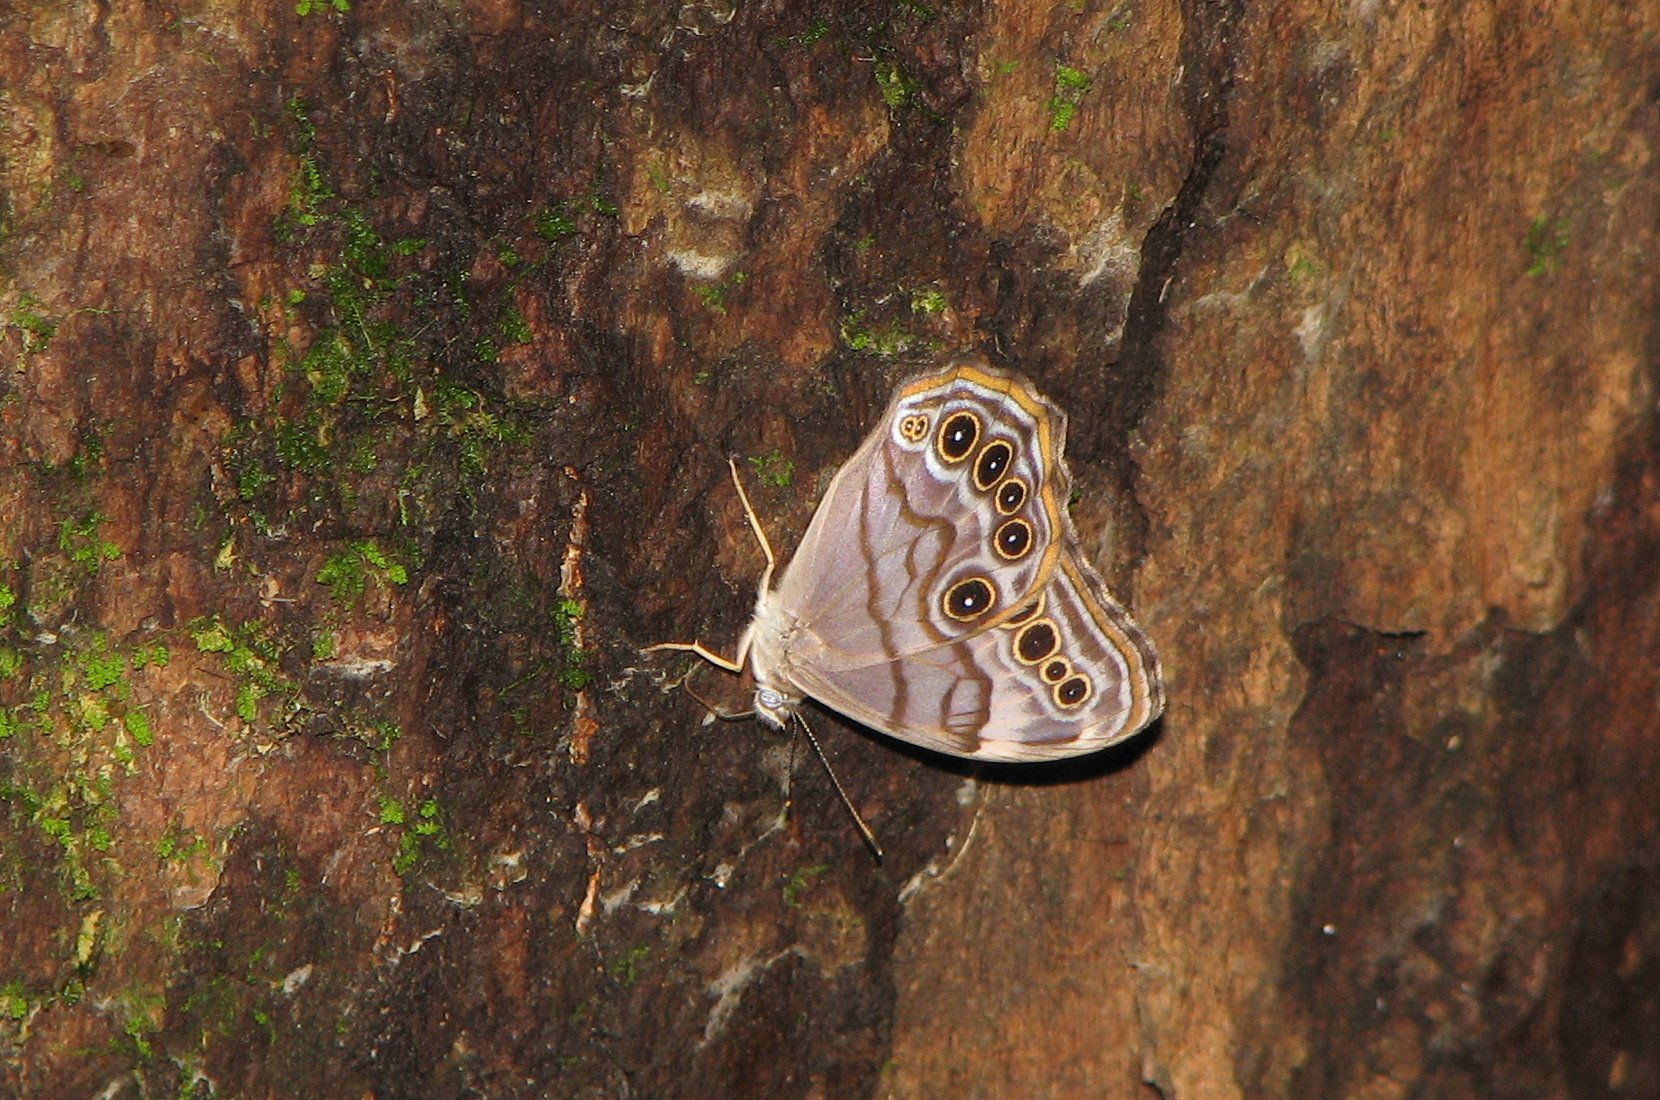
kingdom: Animalia
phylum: Arthropoda
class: Insecta
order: Lepidoptera
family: Nymphalidae
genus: Lethe
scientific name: Lethe anthedon
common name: Northern pearly-eye
